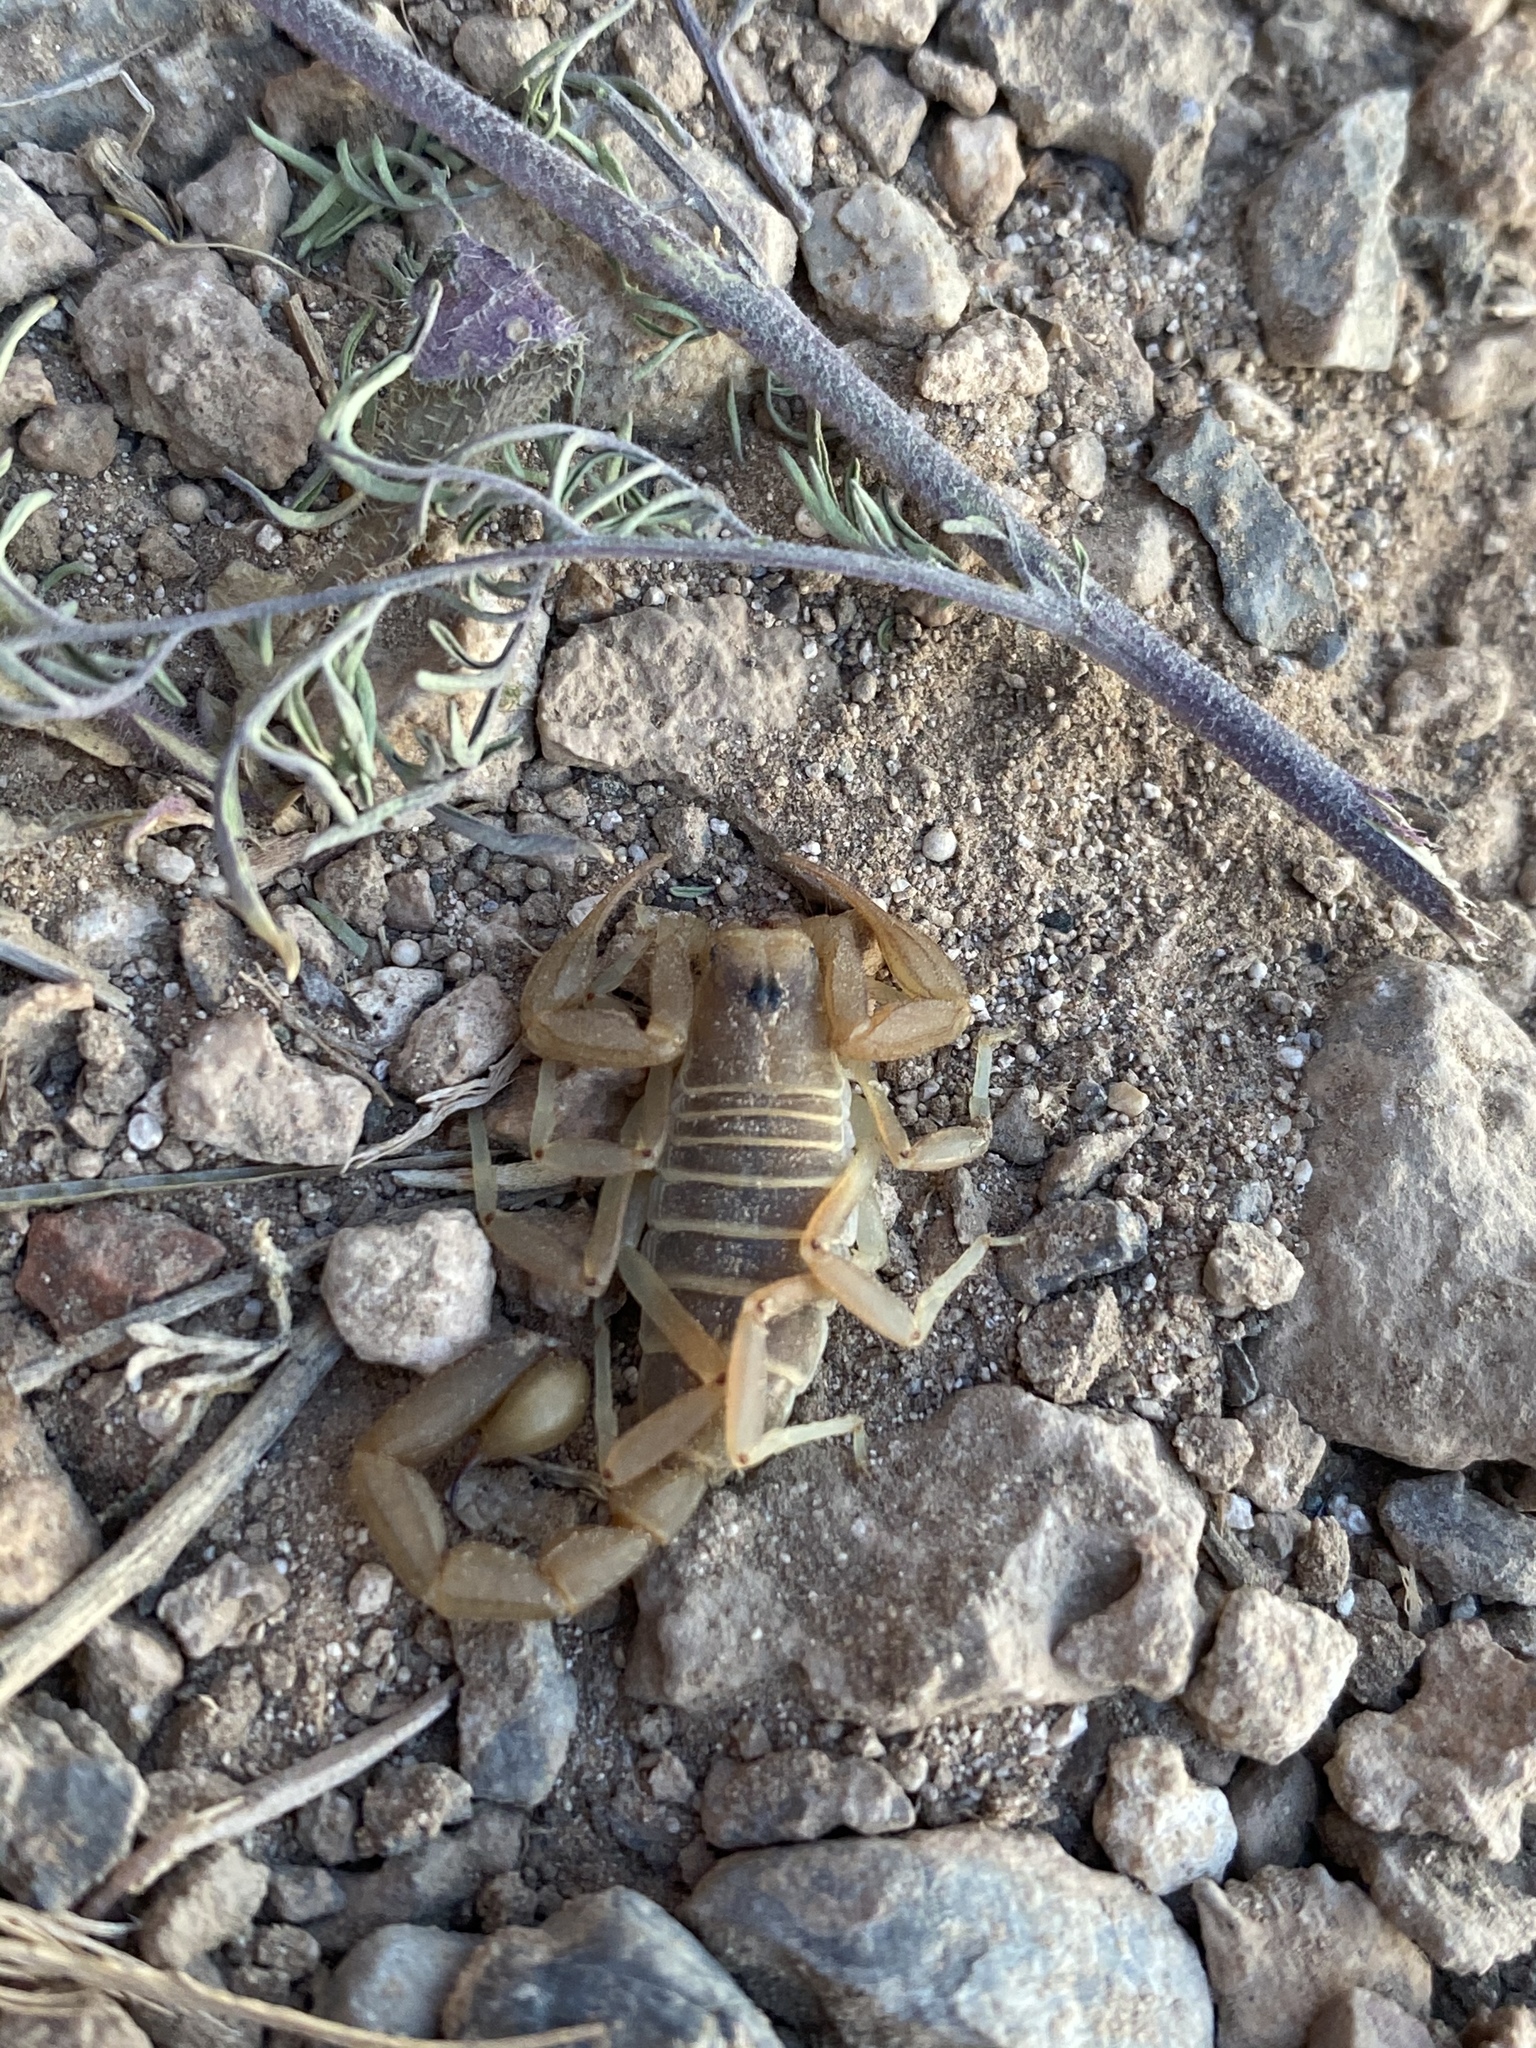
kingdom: Animalia
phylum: Arthropoda
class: Arachnida
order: Scorpiones
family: Vaejovidae
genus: Paruroctonus
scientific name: Paruroctonus becki
